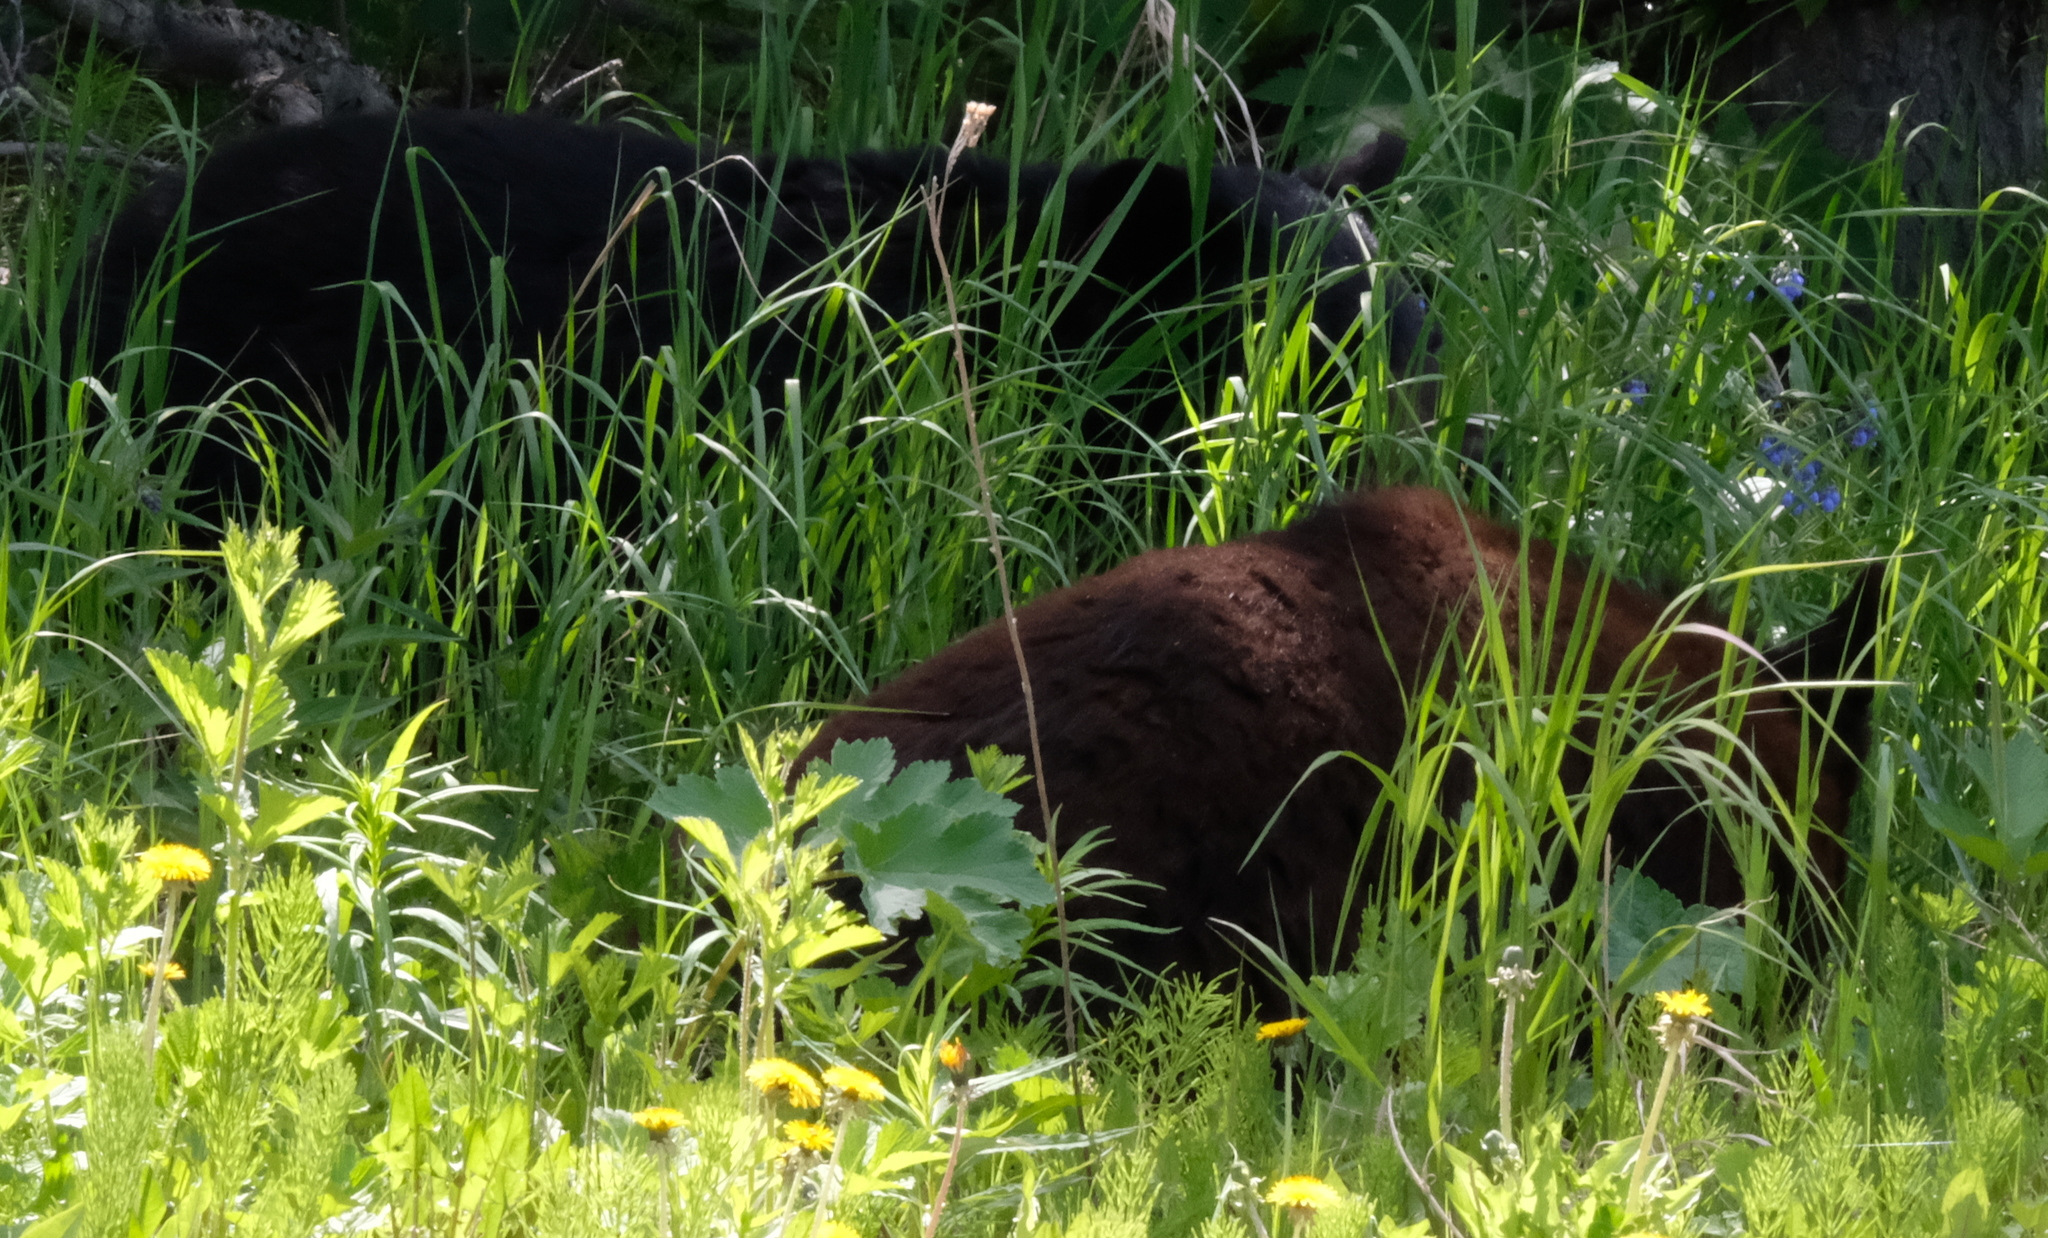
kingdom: Animalia
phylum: Chordata
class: Mammalia
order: Carnivora
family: Ursidae
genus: Ursus
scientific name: Ursus americanus
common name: American black bear
